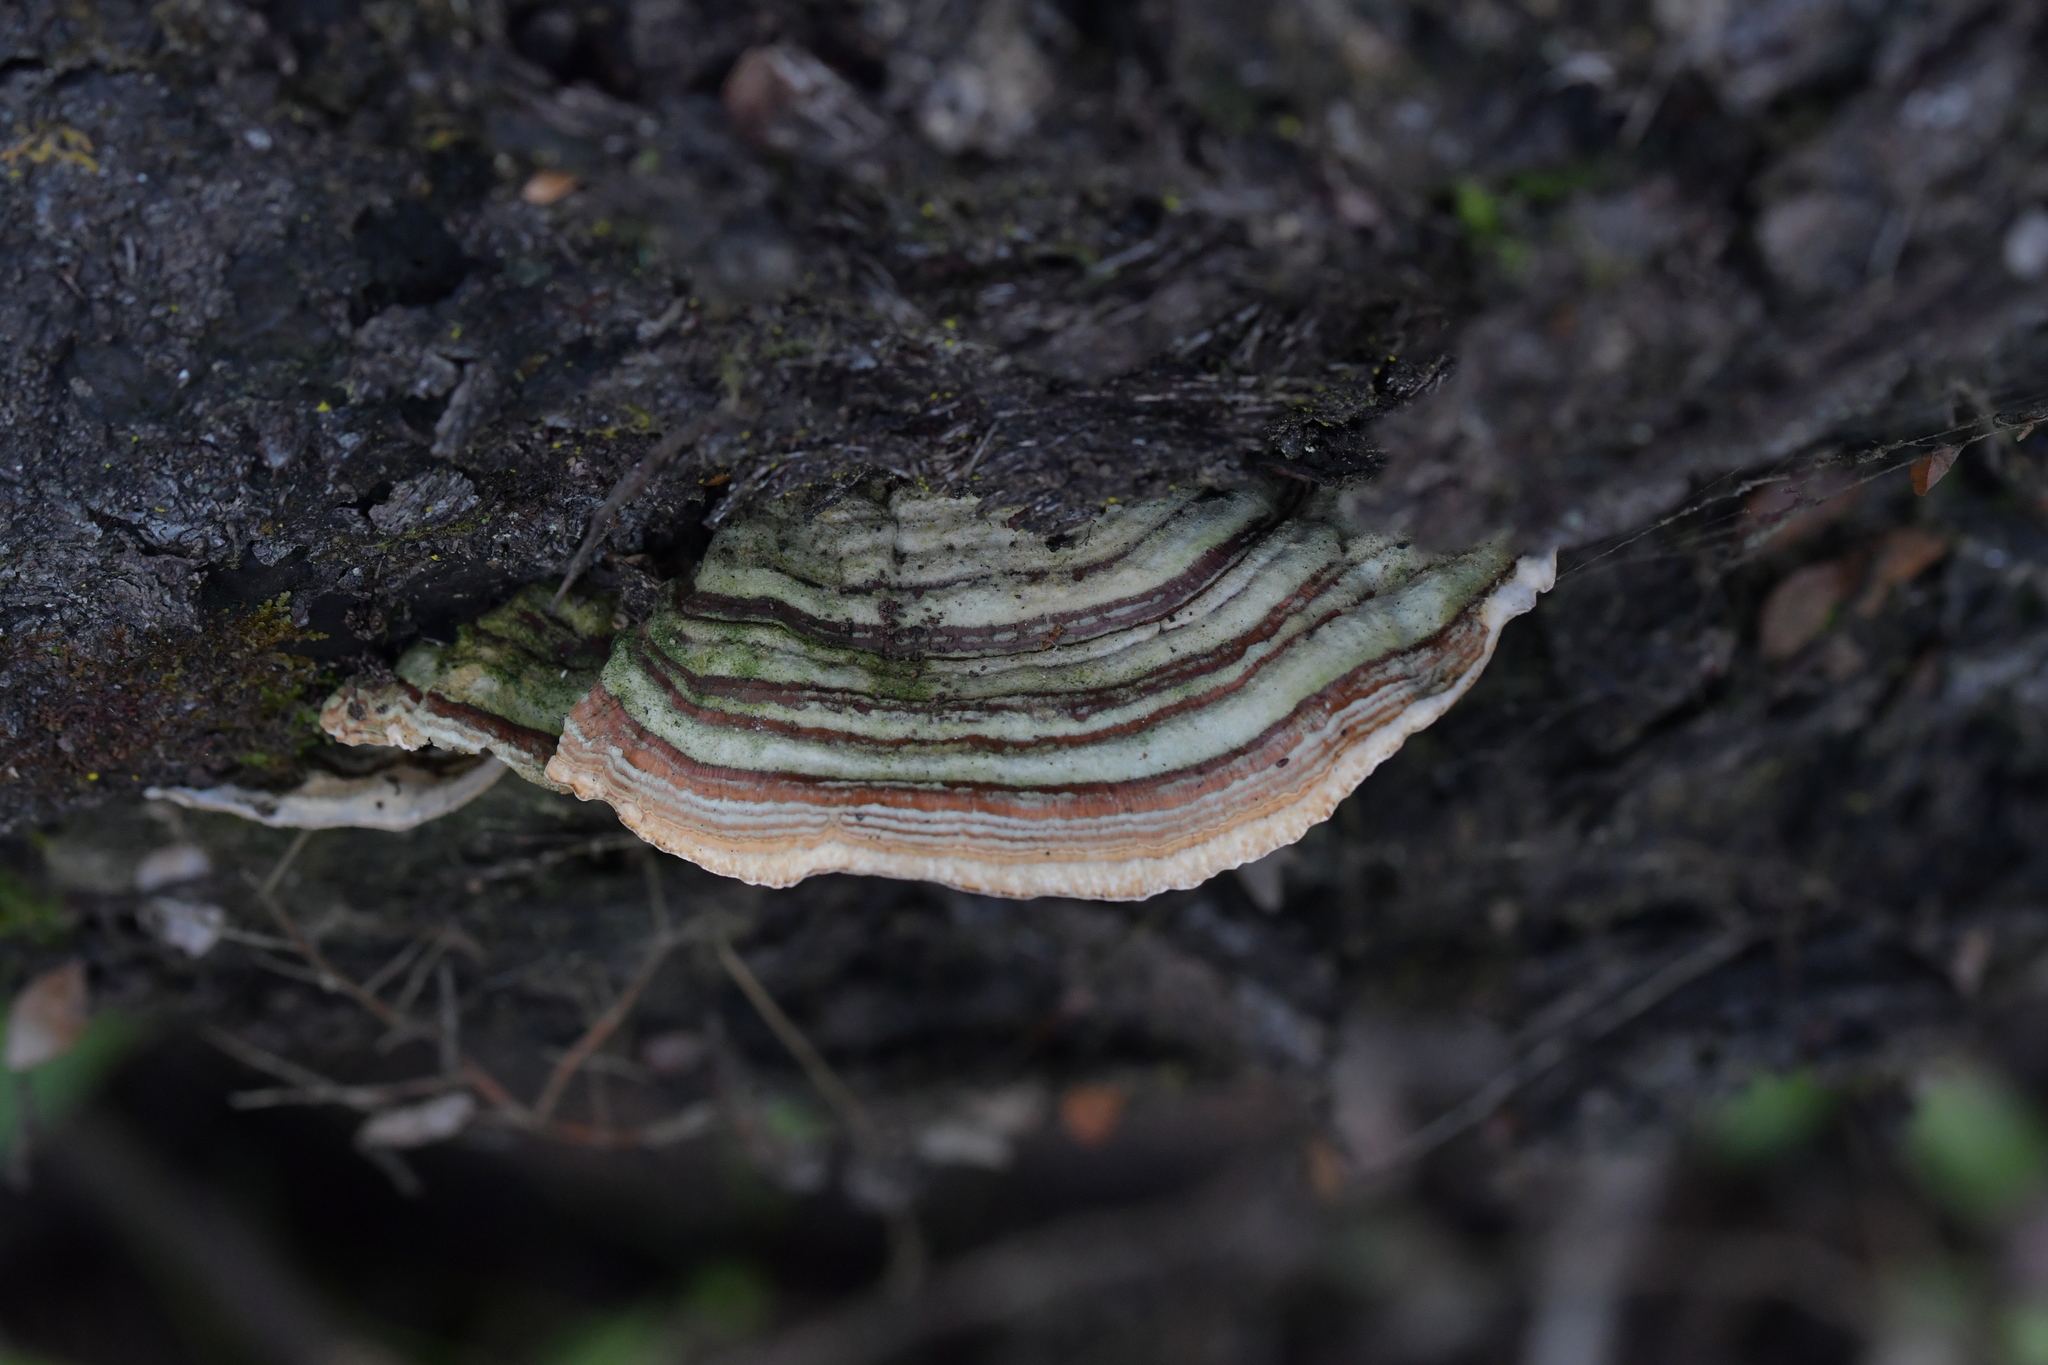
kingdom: Fungi
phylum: Basidiomycota
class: Agaricomycetes
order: Russulales
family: Stereaceae
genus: Stereum
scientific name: Stereum versicolor
